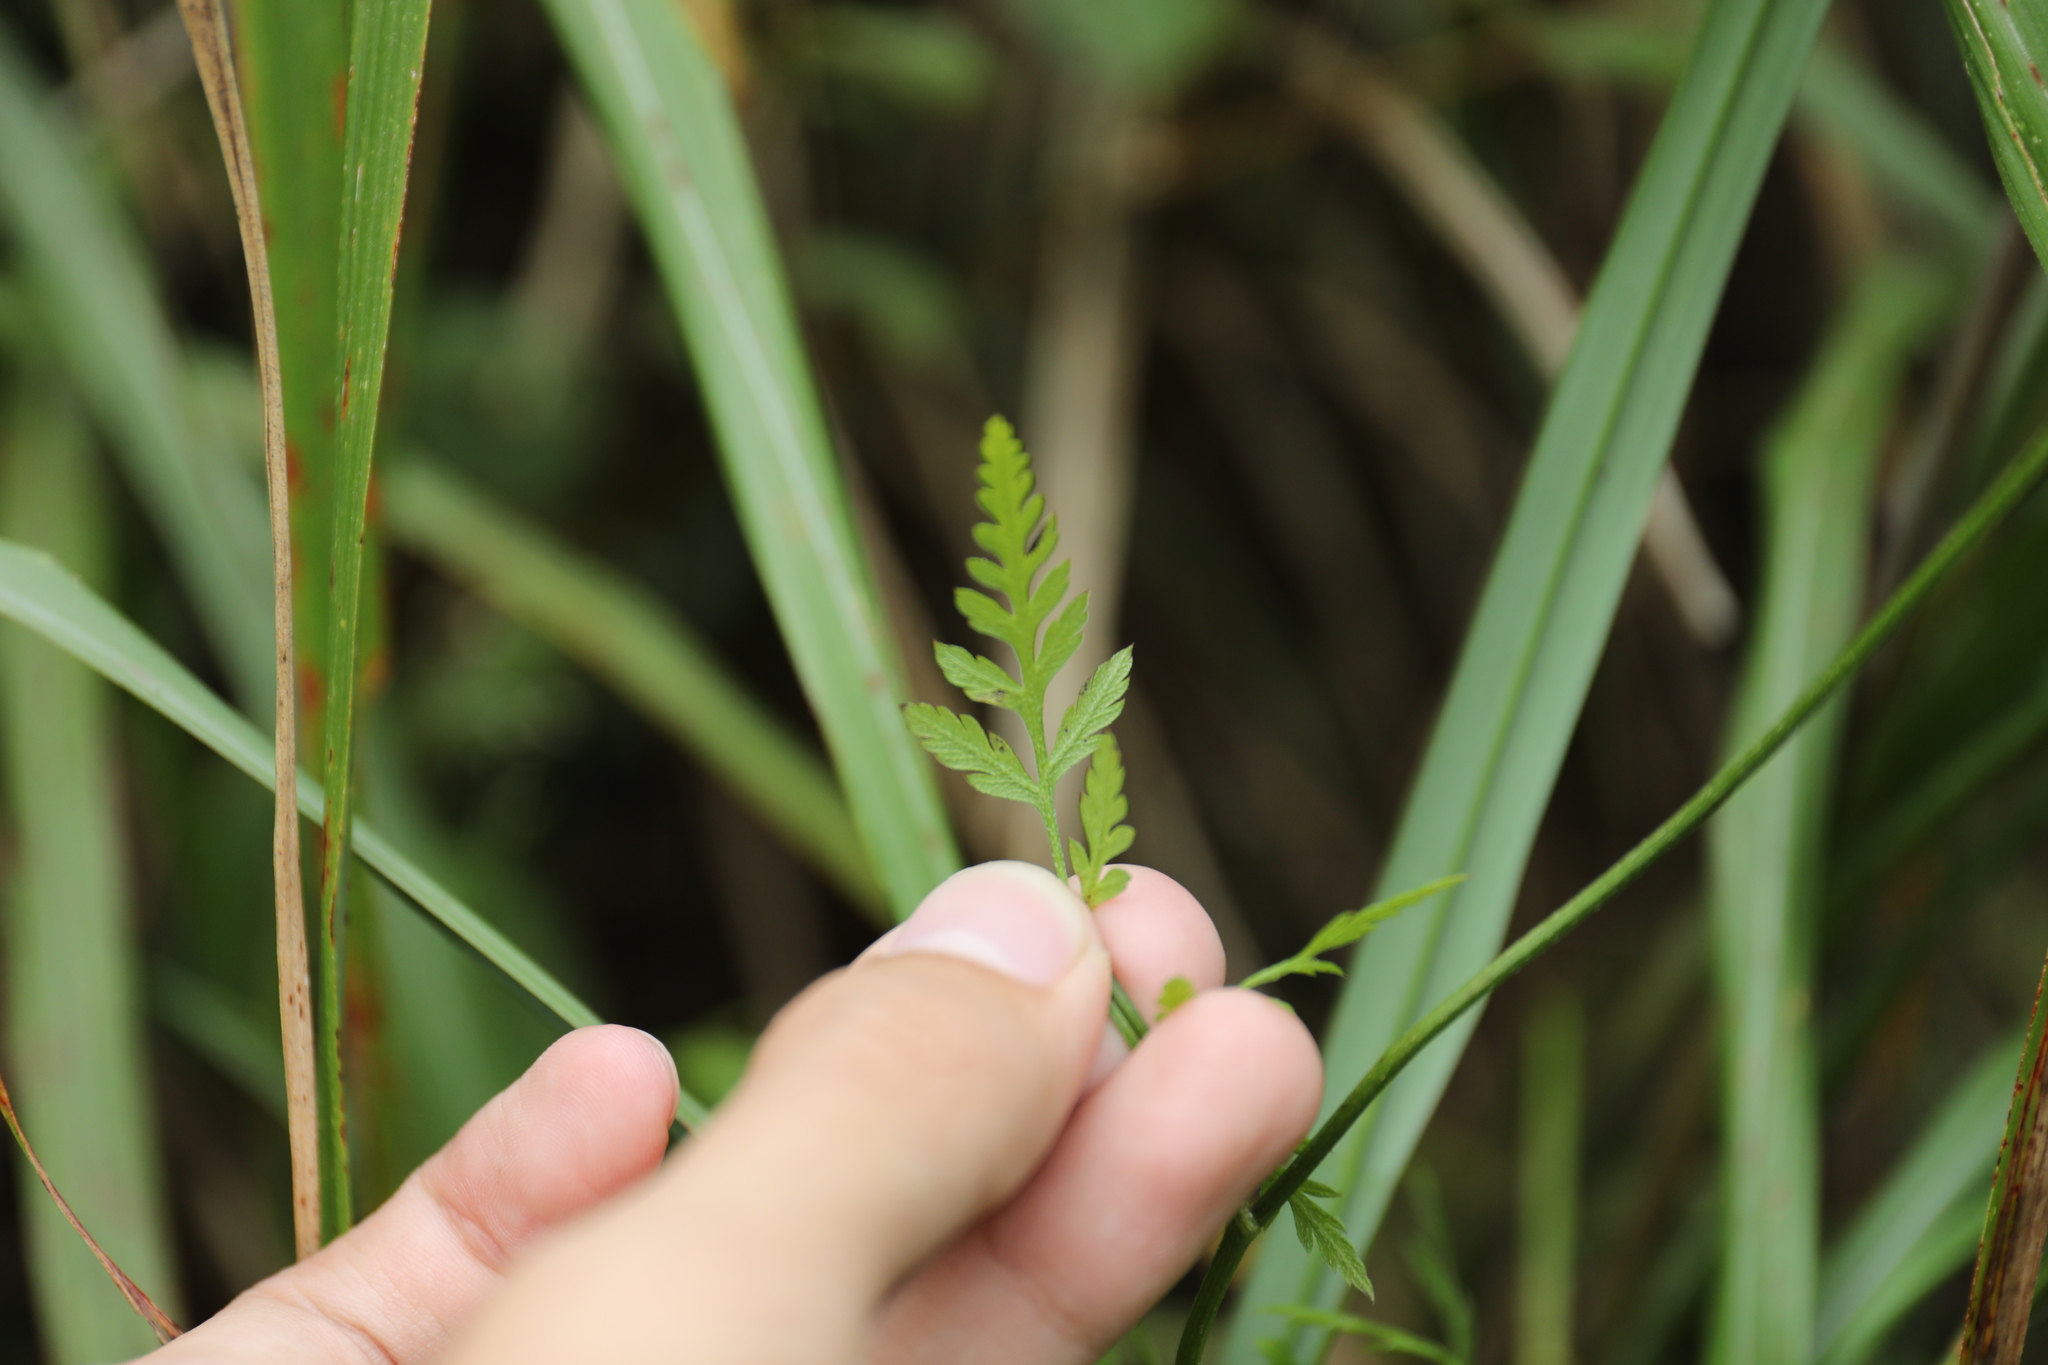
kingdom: Plantae
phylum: Tracheophyta
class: Magnoliopsida
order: Apiales
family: Apiaceae
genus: Torilis
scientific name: Torilis japonica
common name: Upright hedge-parsley
